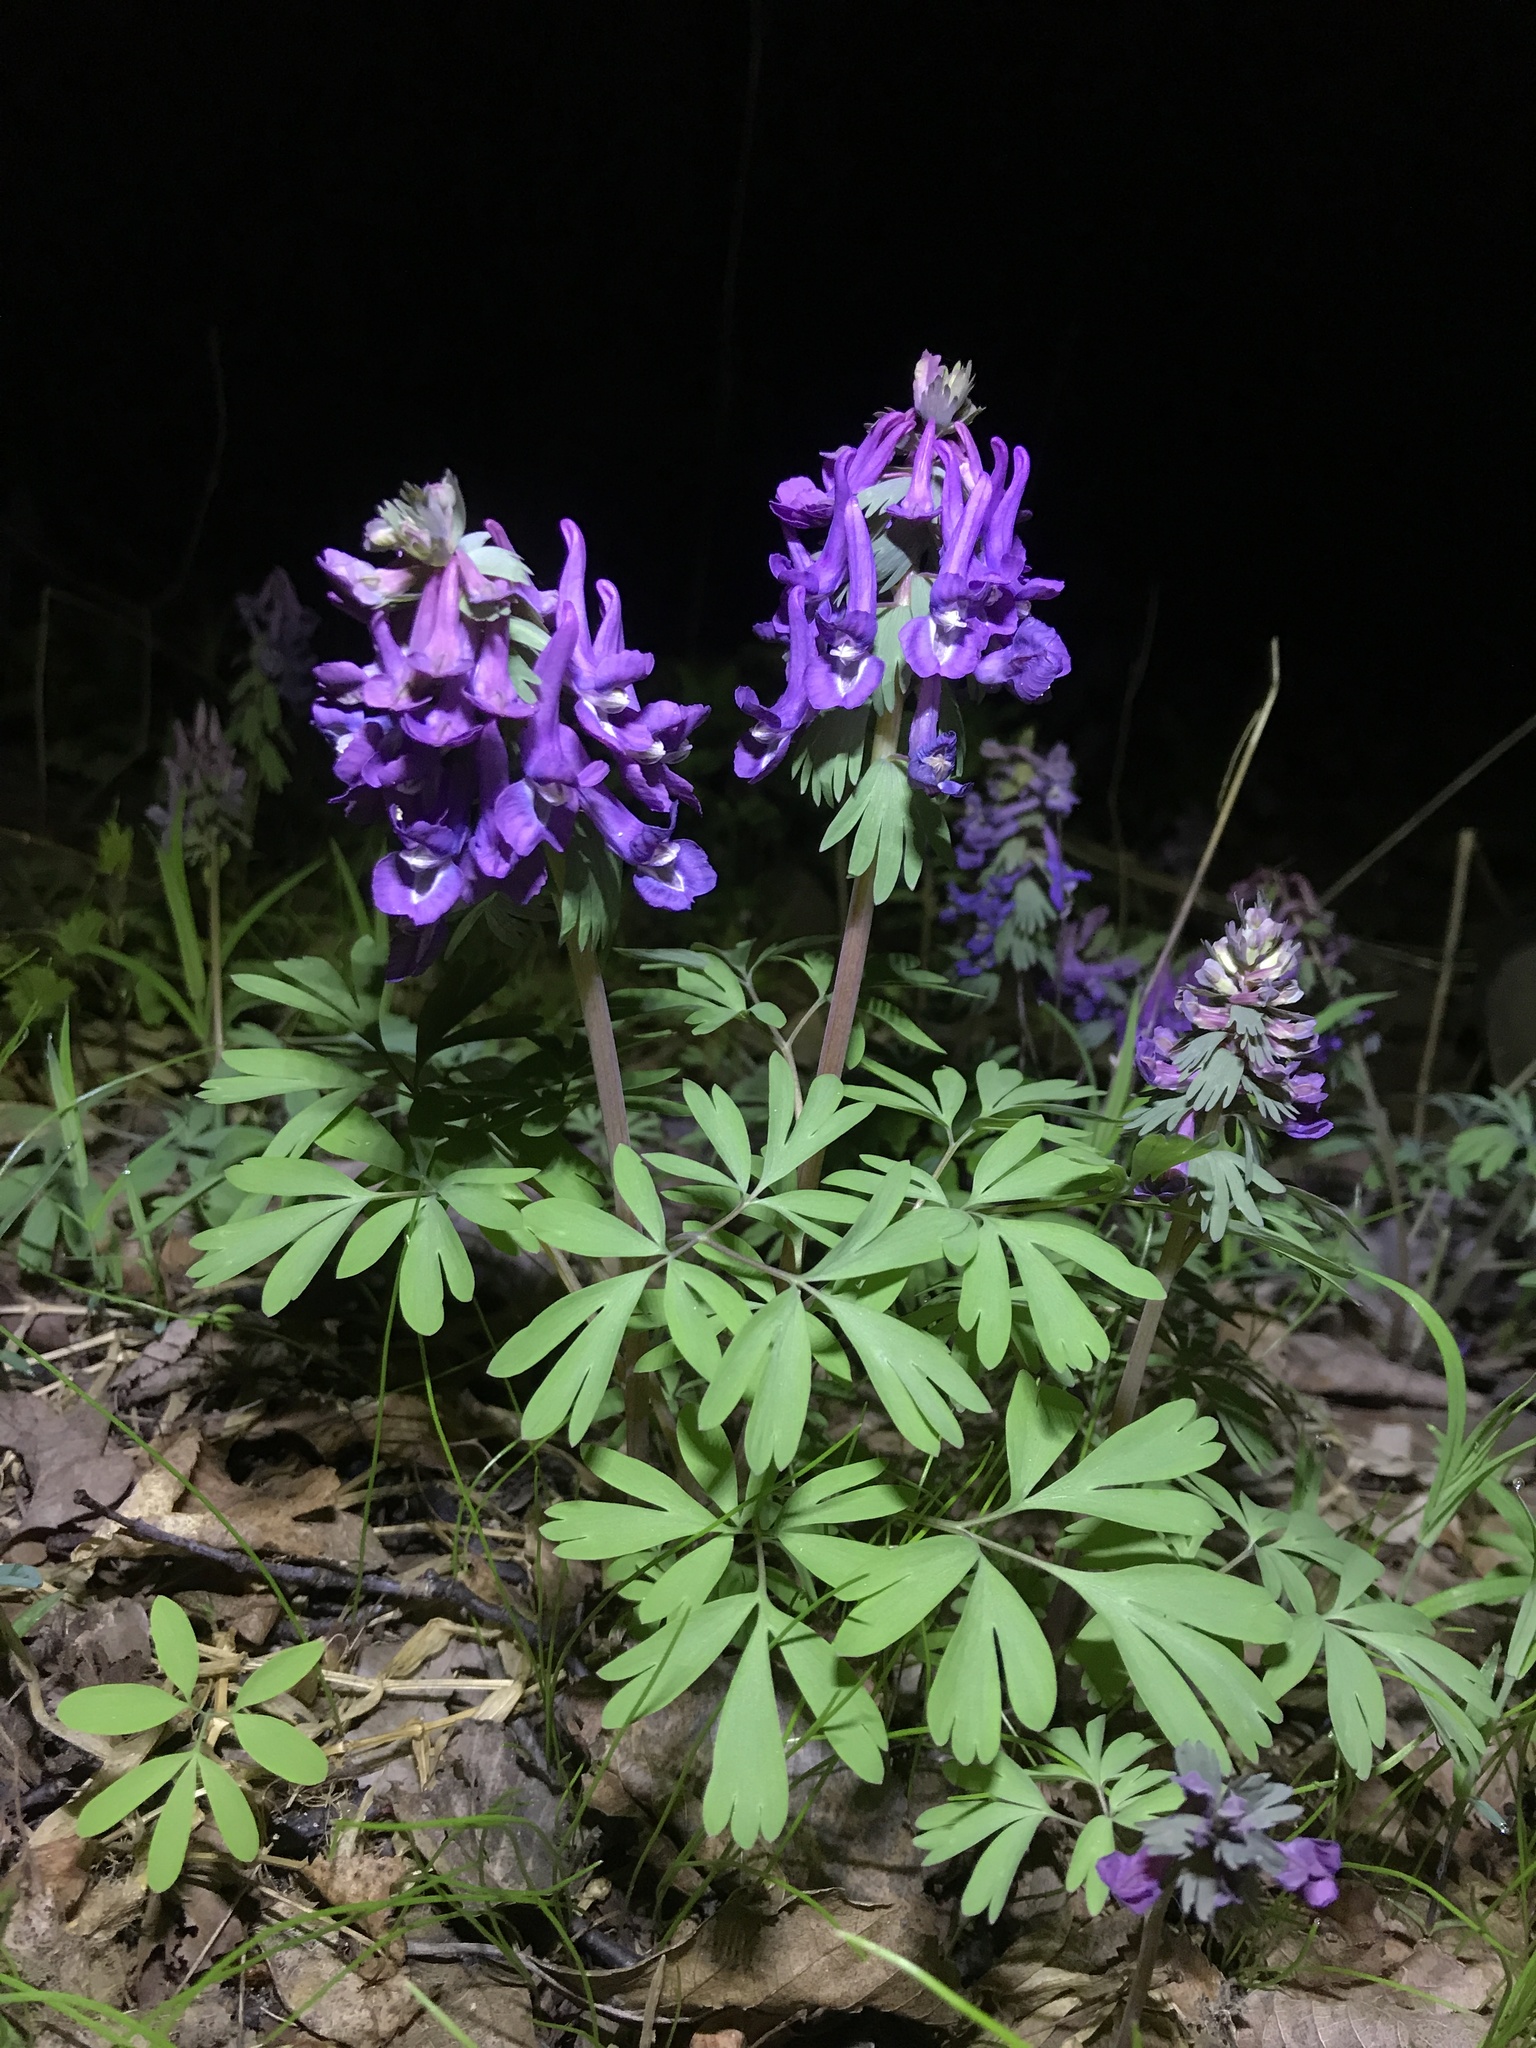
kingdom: Plantae
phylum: Tracheophyta
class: Magnoliopsida
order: Ranunculales
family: Papaveraceae
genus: Corydalis
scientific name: Corydalis solida
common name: Bird-in-a-bush
